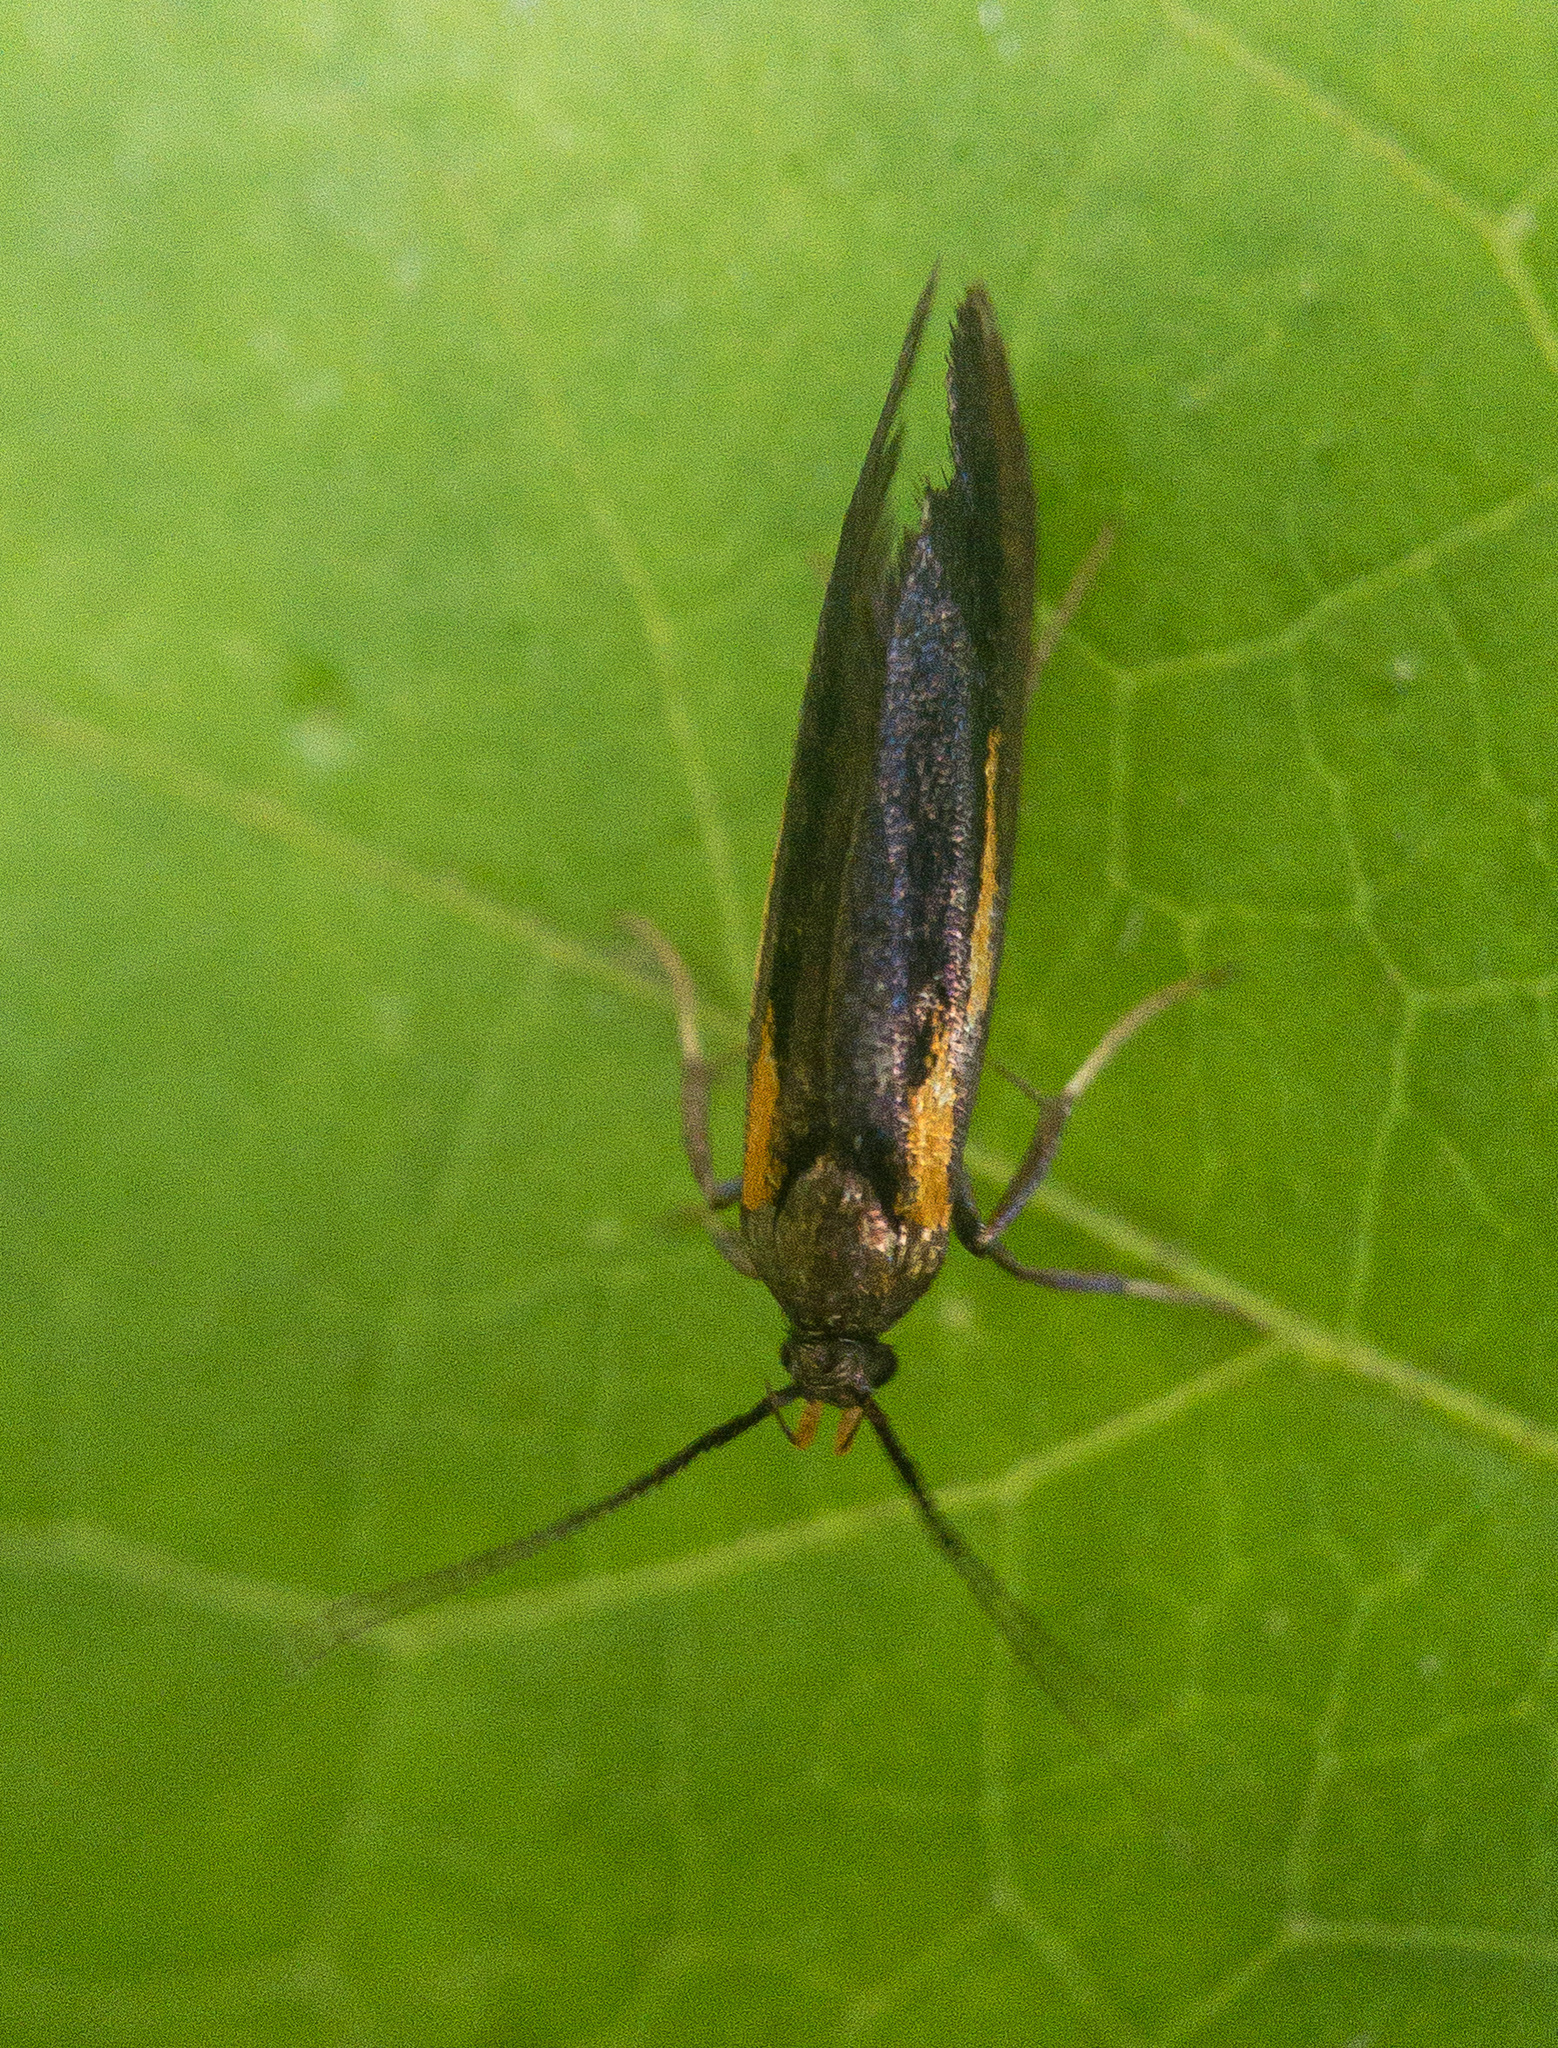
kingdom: Animalia
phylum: Arthropoda
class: Insecta
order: Lepidoptera
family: Oecophoridae
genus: Mathildana
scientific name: Mathildana newmanella
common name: Newman's mathildana moth
